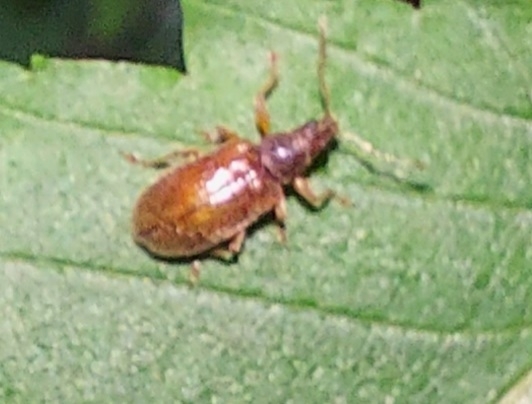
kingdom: Animalia
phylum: Arthropoda
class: Insecta
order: Coleoptera
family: Curculionidae
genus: Phyllobius
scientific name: Phyllobius oblongus
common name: Brown leaf weevil
